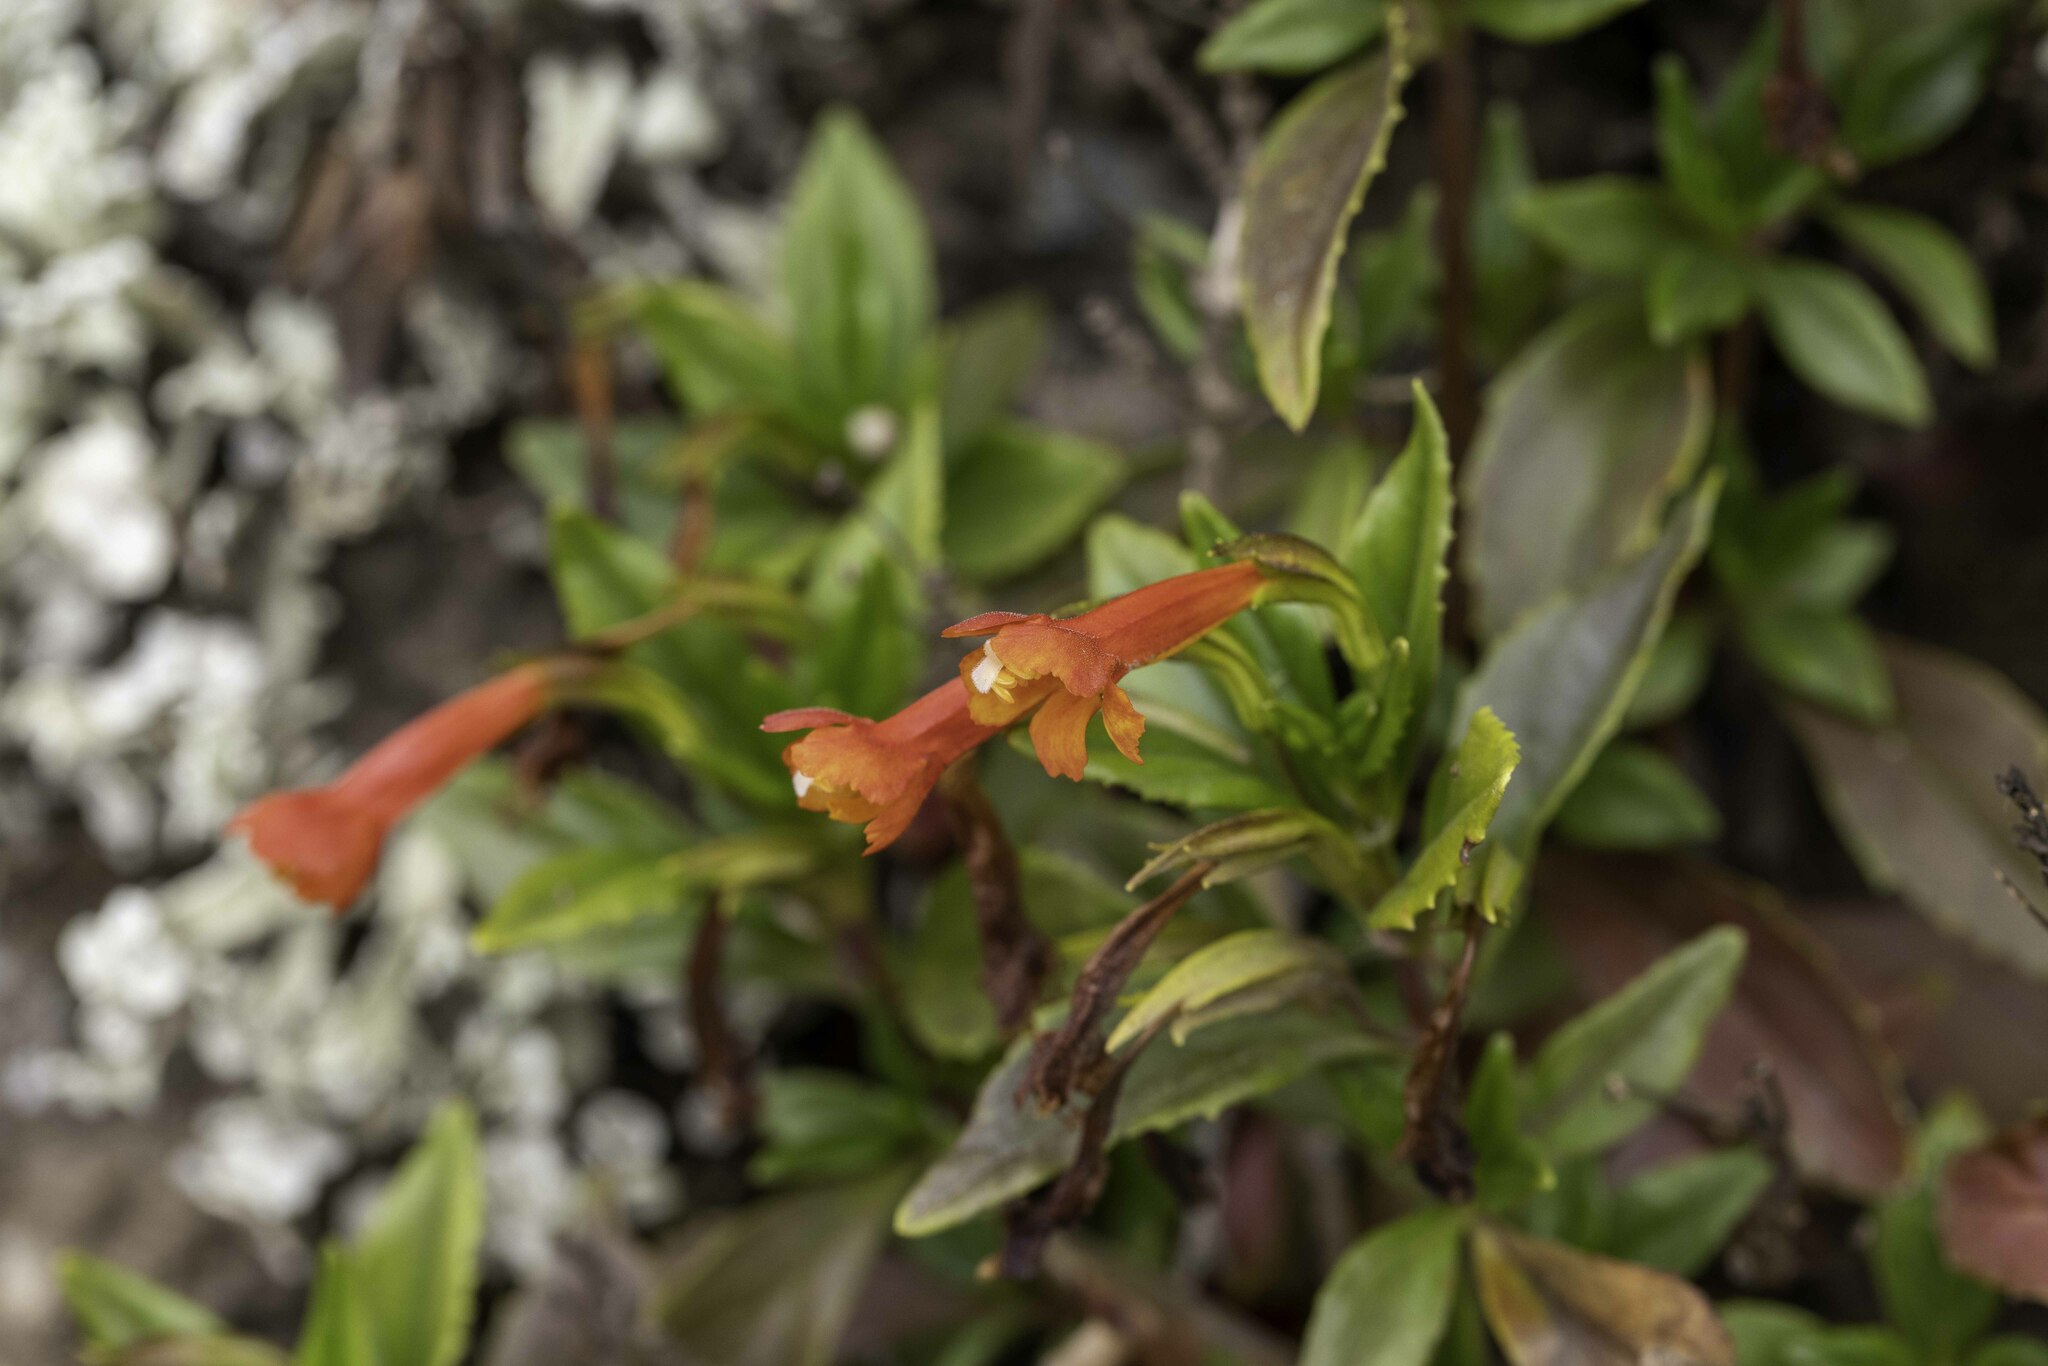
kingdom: Plantae
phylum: Tracheophyta
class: Magnoliopsida
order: Lamiales
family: Phrymaceae
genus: Diplacus
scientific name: Diplacus parviflorus
